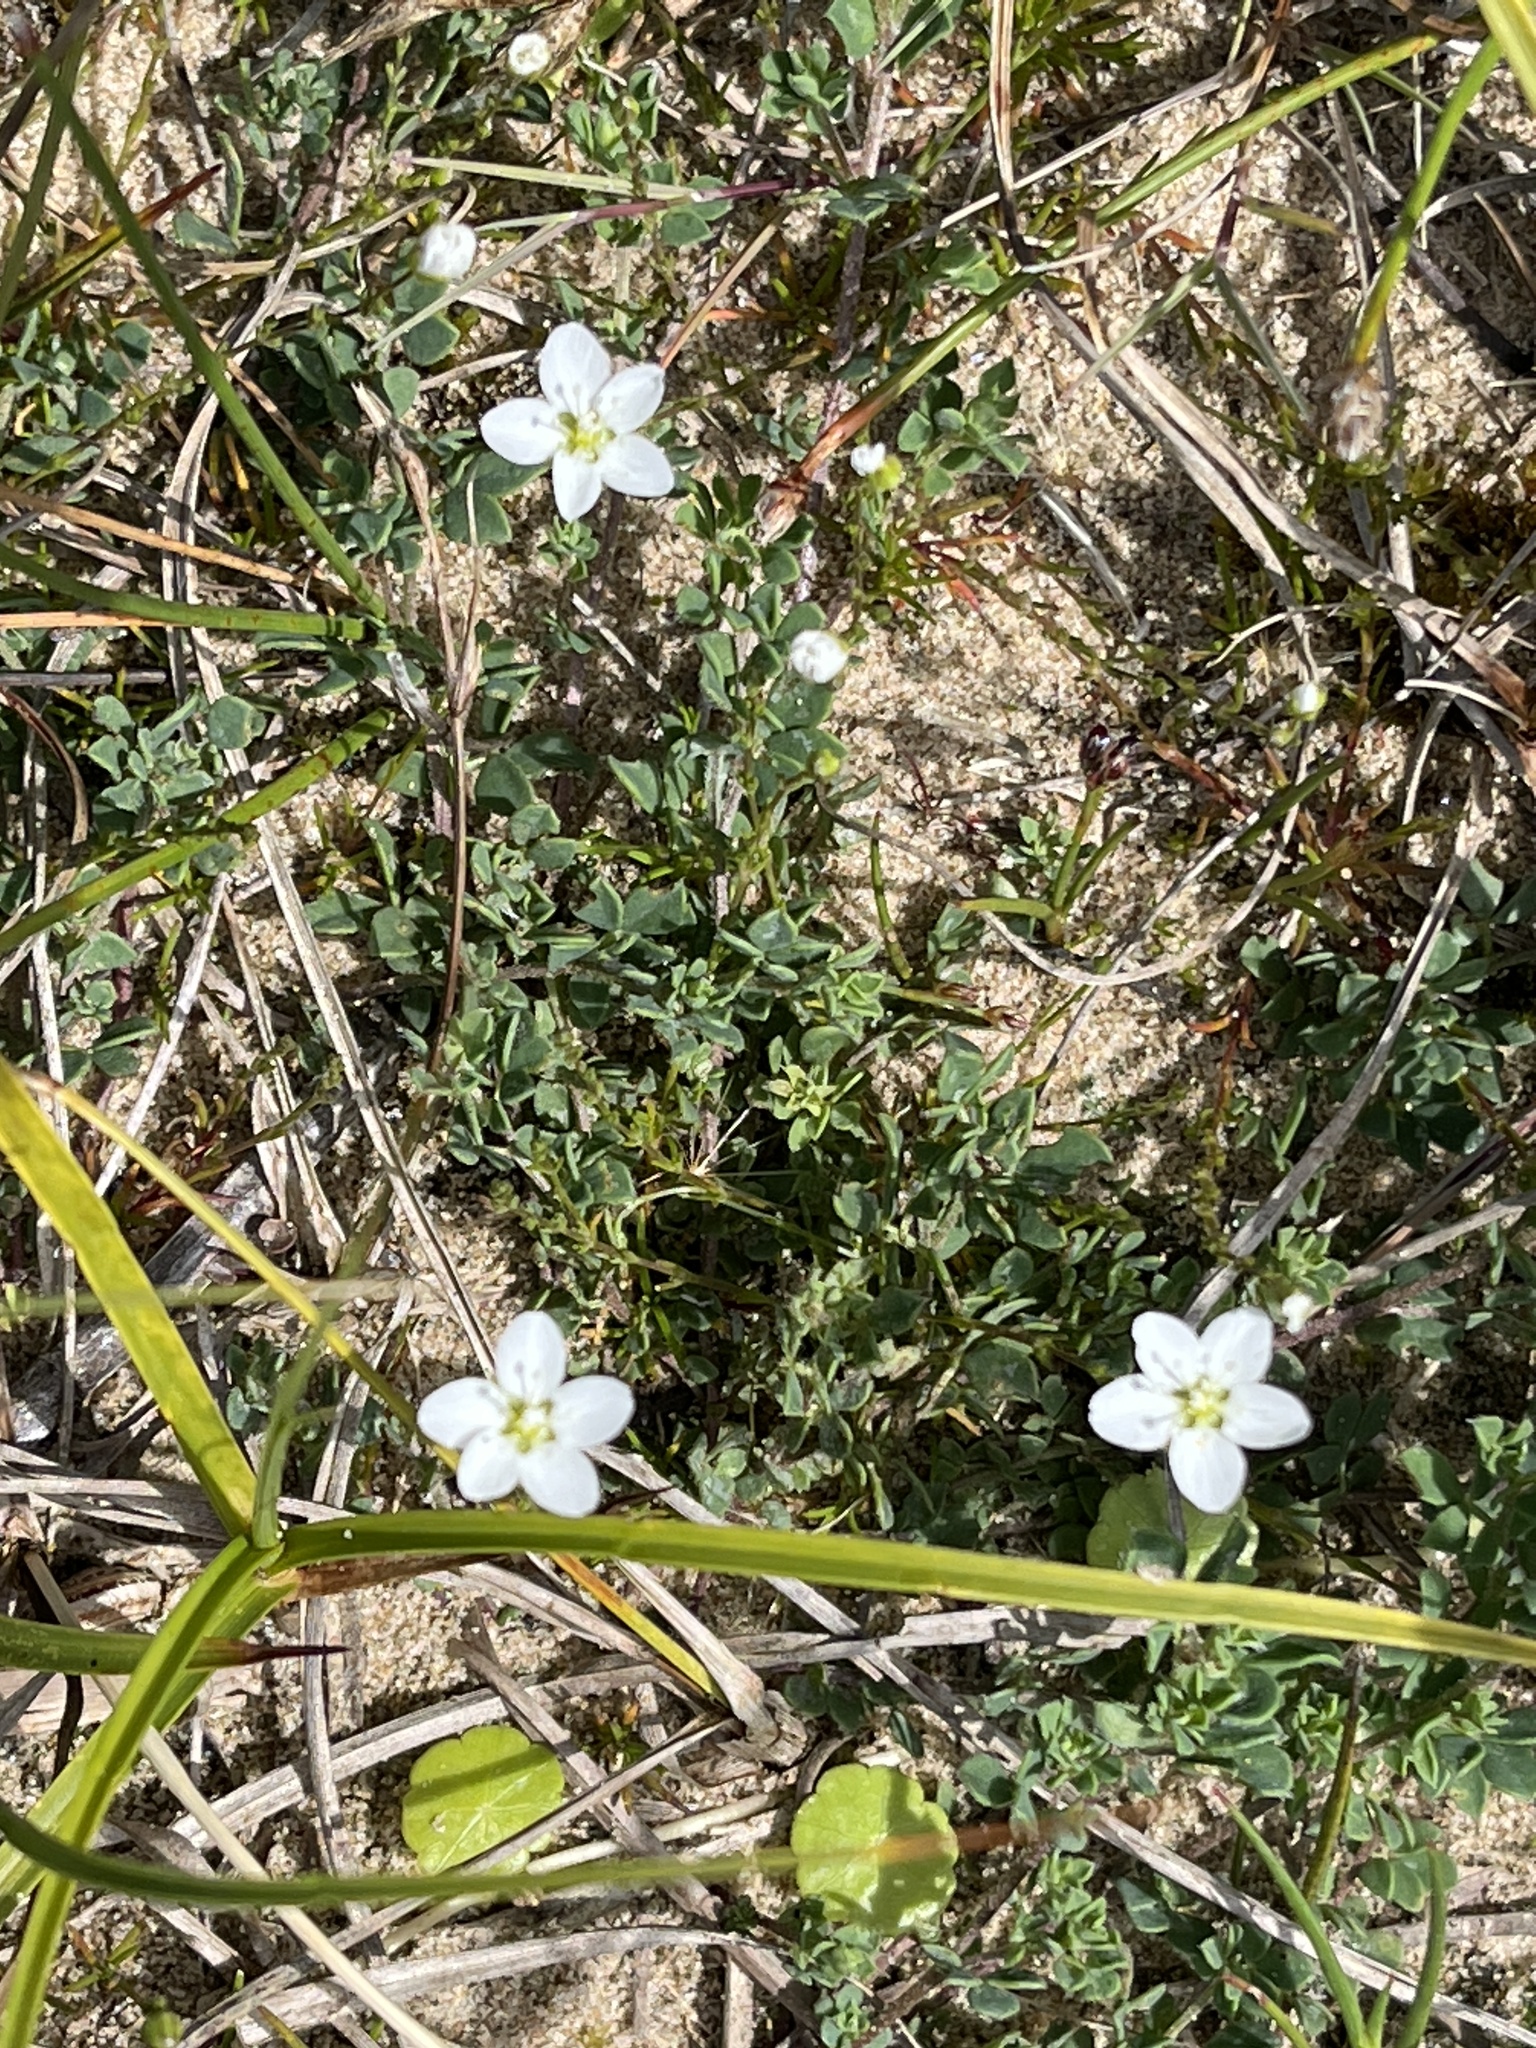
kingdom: Plantae
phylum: Tracheophyta
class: Magnoliopsida
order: Caryophyllales
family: Caryophyllaceae
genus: Sagina
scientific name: Sagina nodosa
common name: Knotted pearlwort
